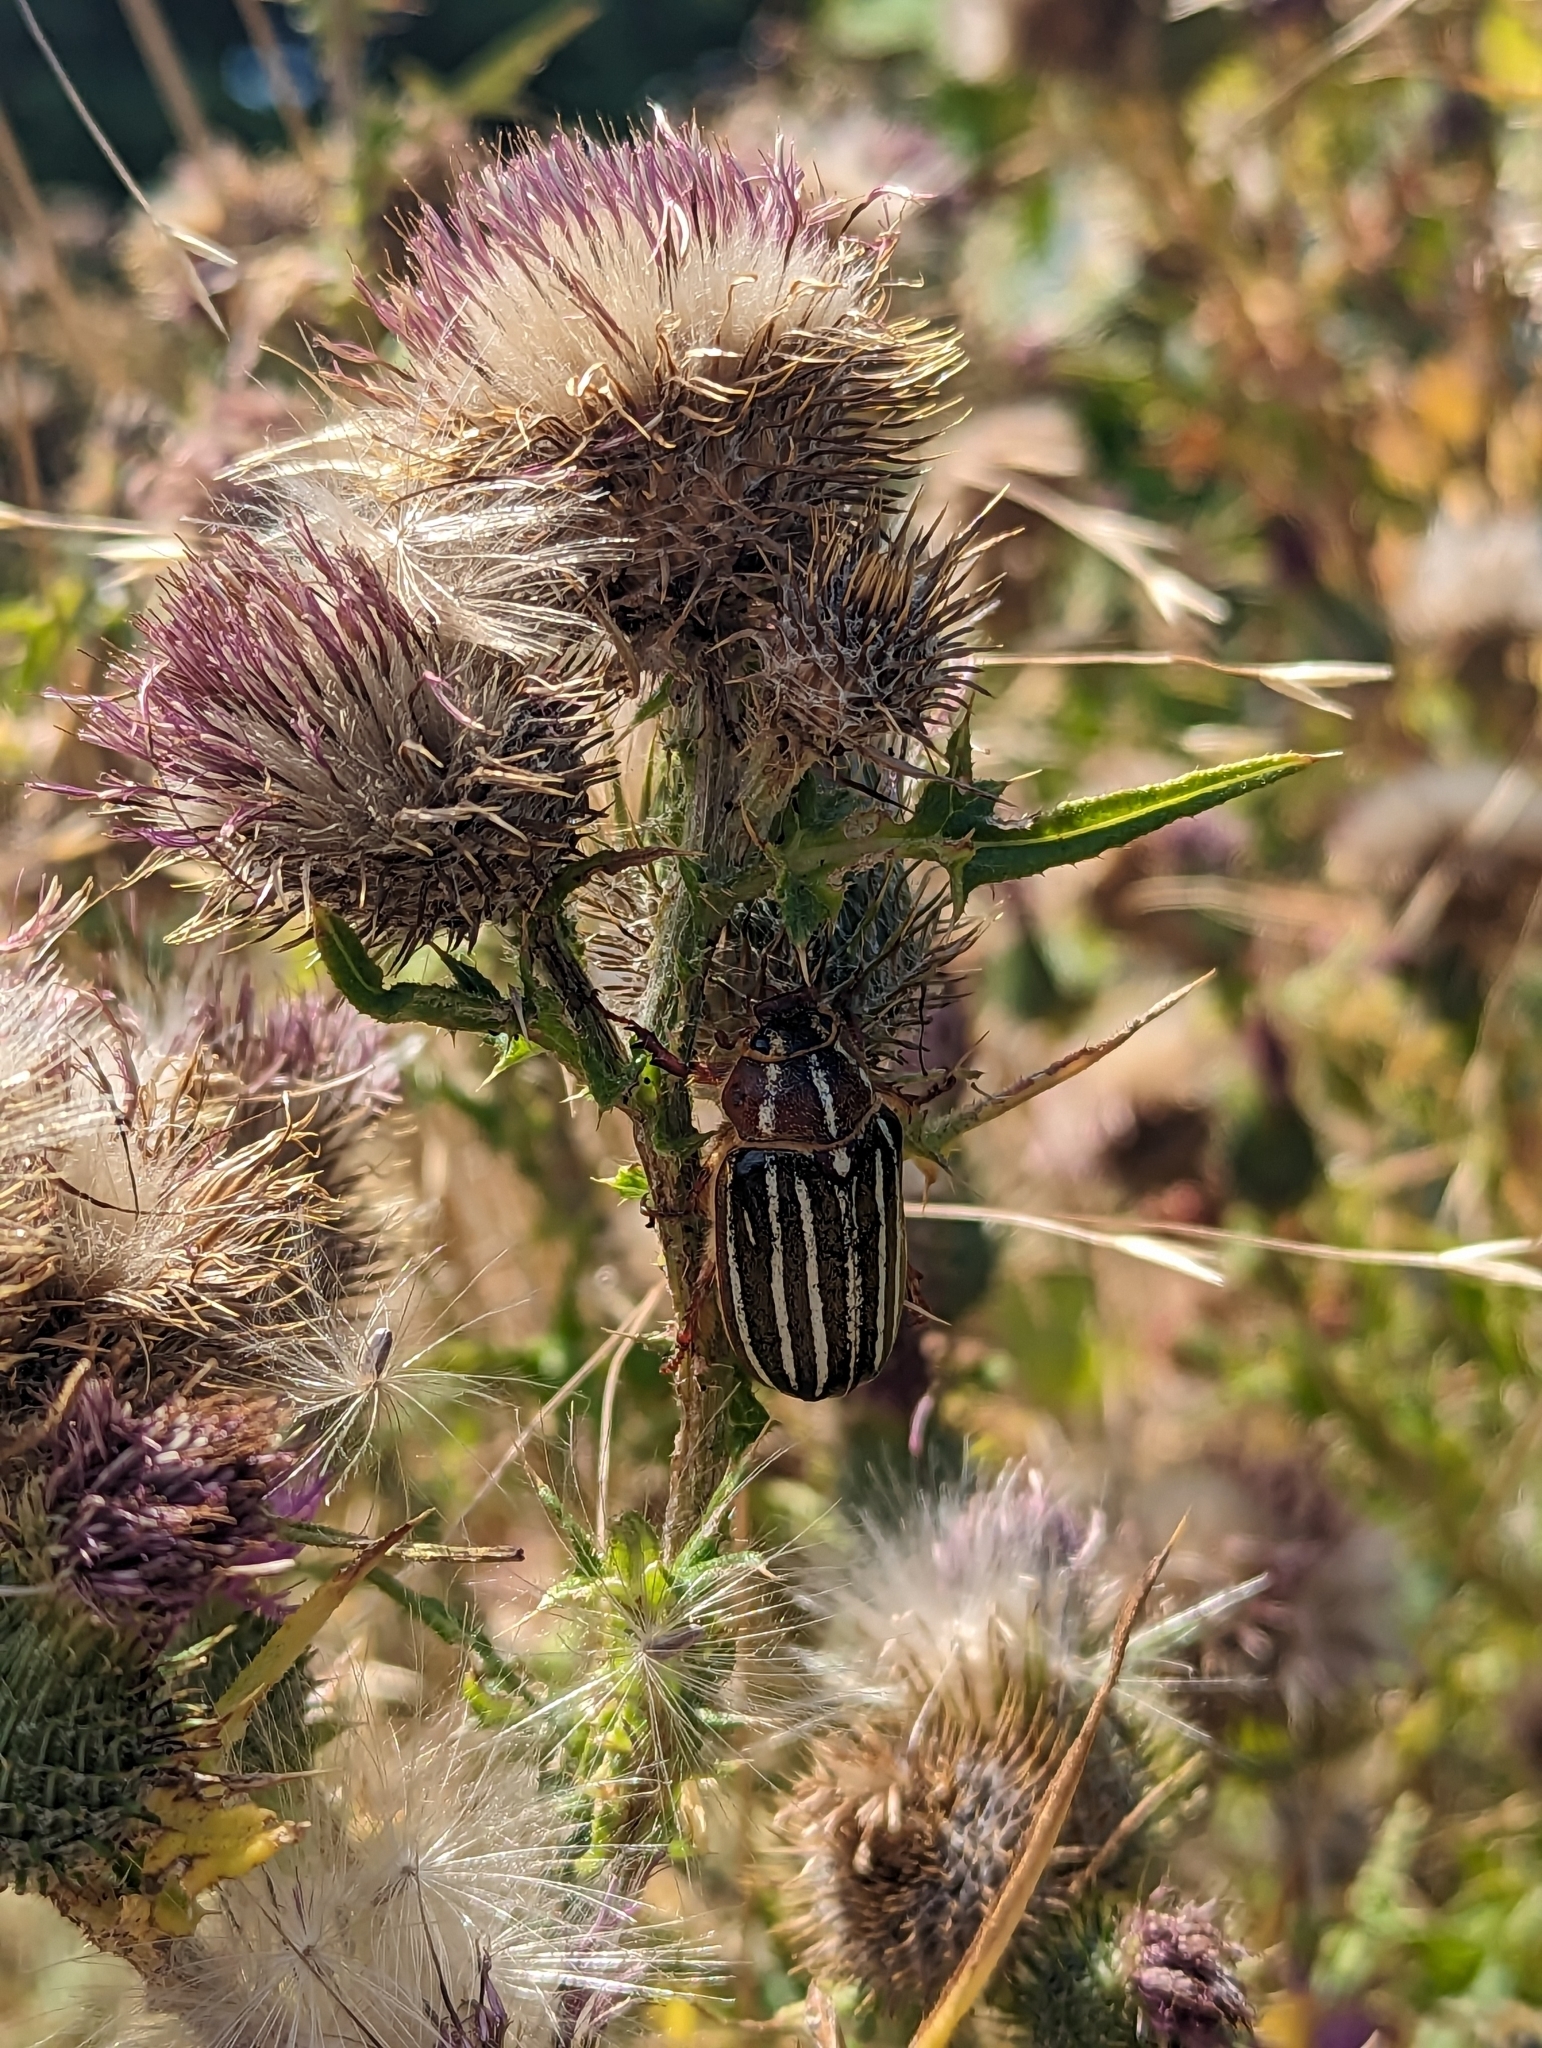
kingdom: Animalia
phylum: Arthropoda
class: Insecta
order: Coleoptera
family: Scarabaeidae
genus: Polyphylla
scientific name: Polyphylla crinita
